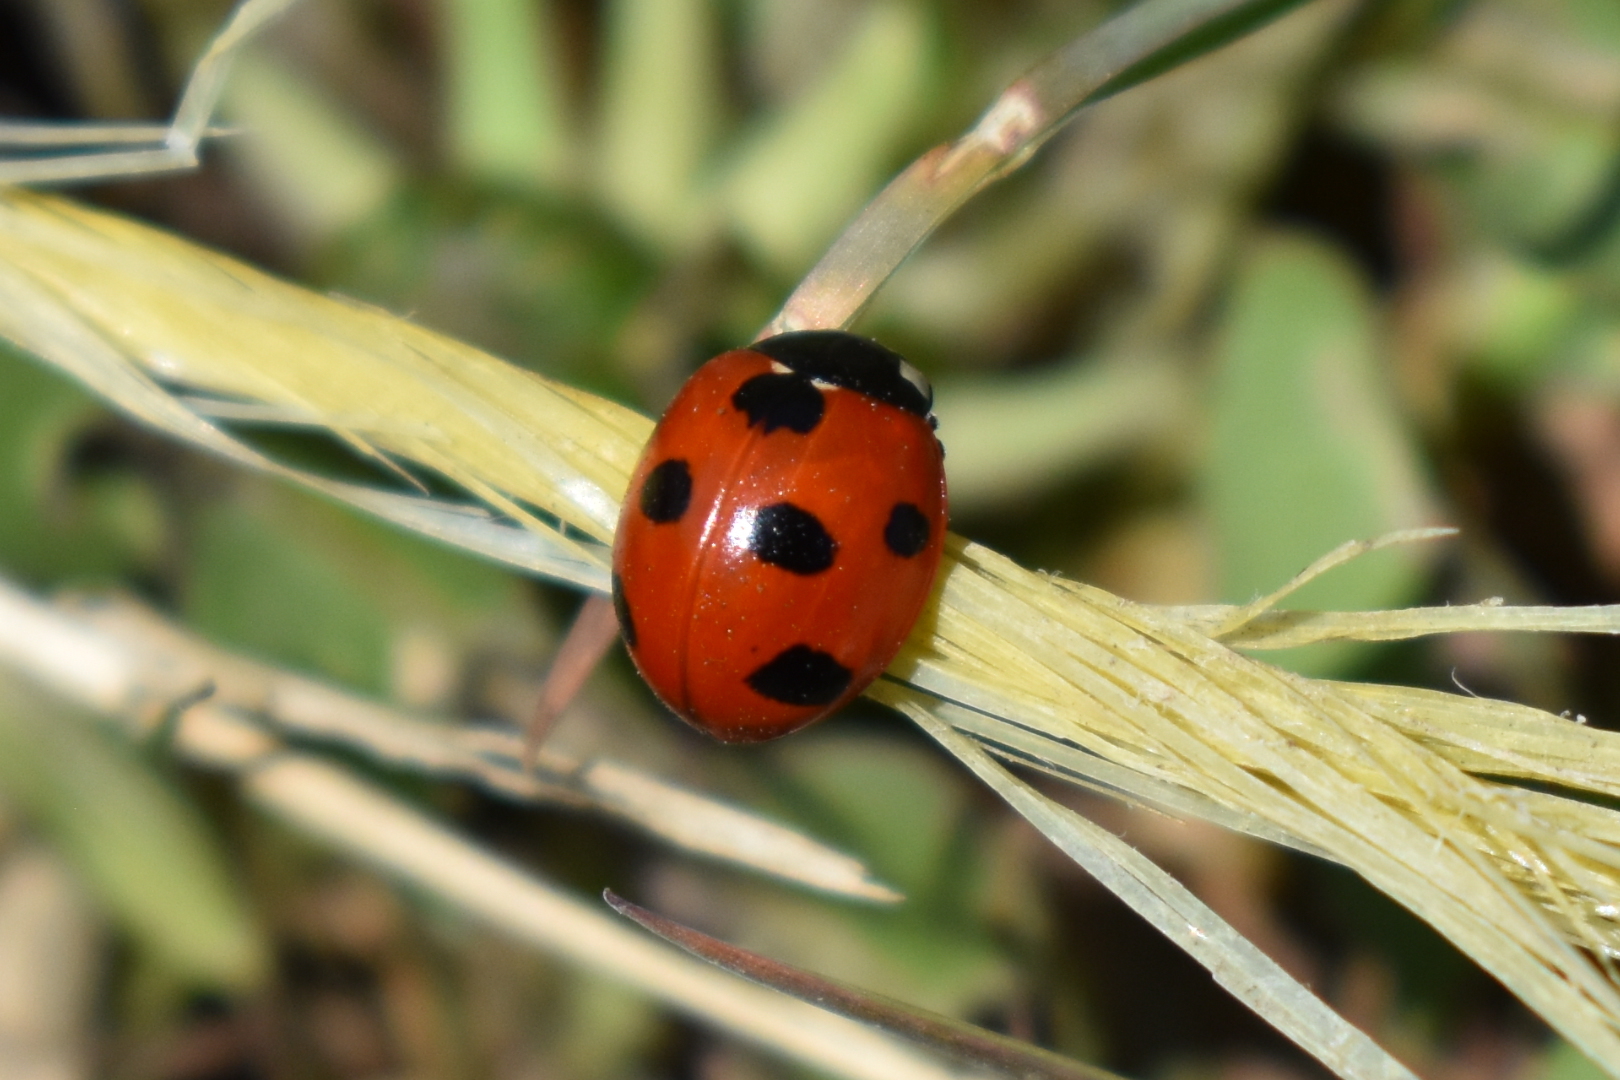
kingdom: Animalia
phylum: Arthropoda
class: Insecta
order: Coleoptera
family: Coccinellidae
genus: Coccinella
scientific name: Coccinella septempunctata
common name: Sevenspotted lady beetle
